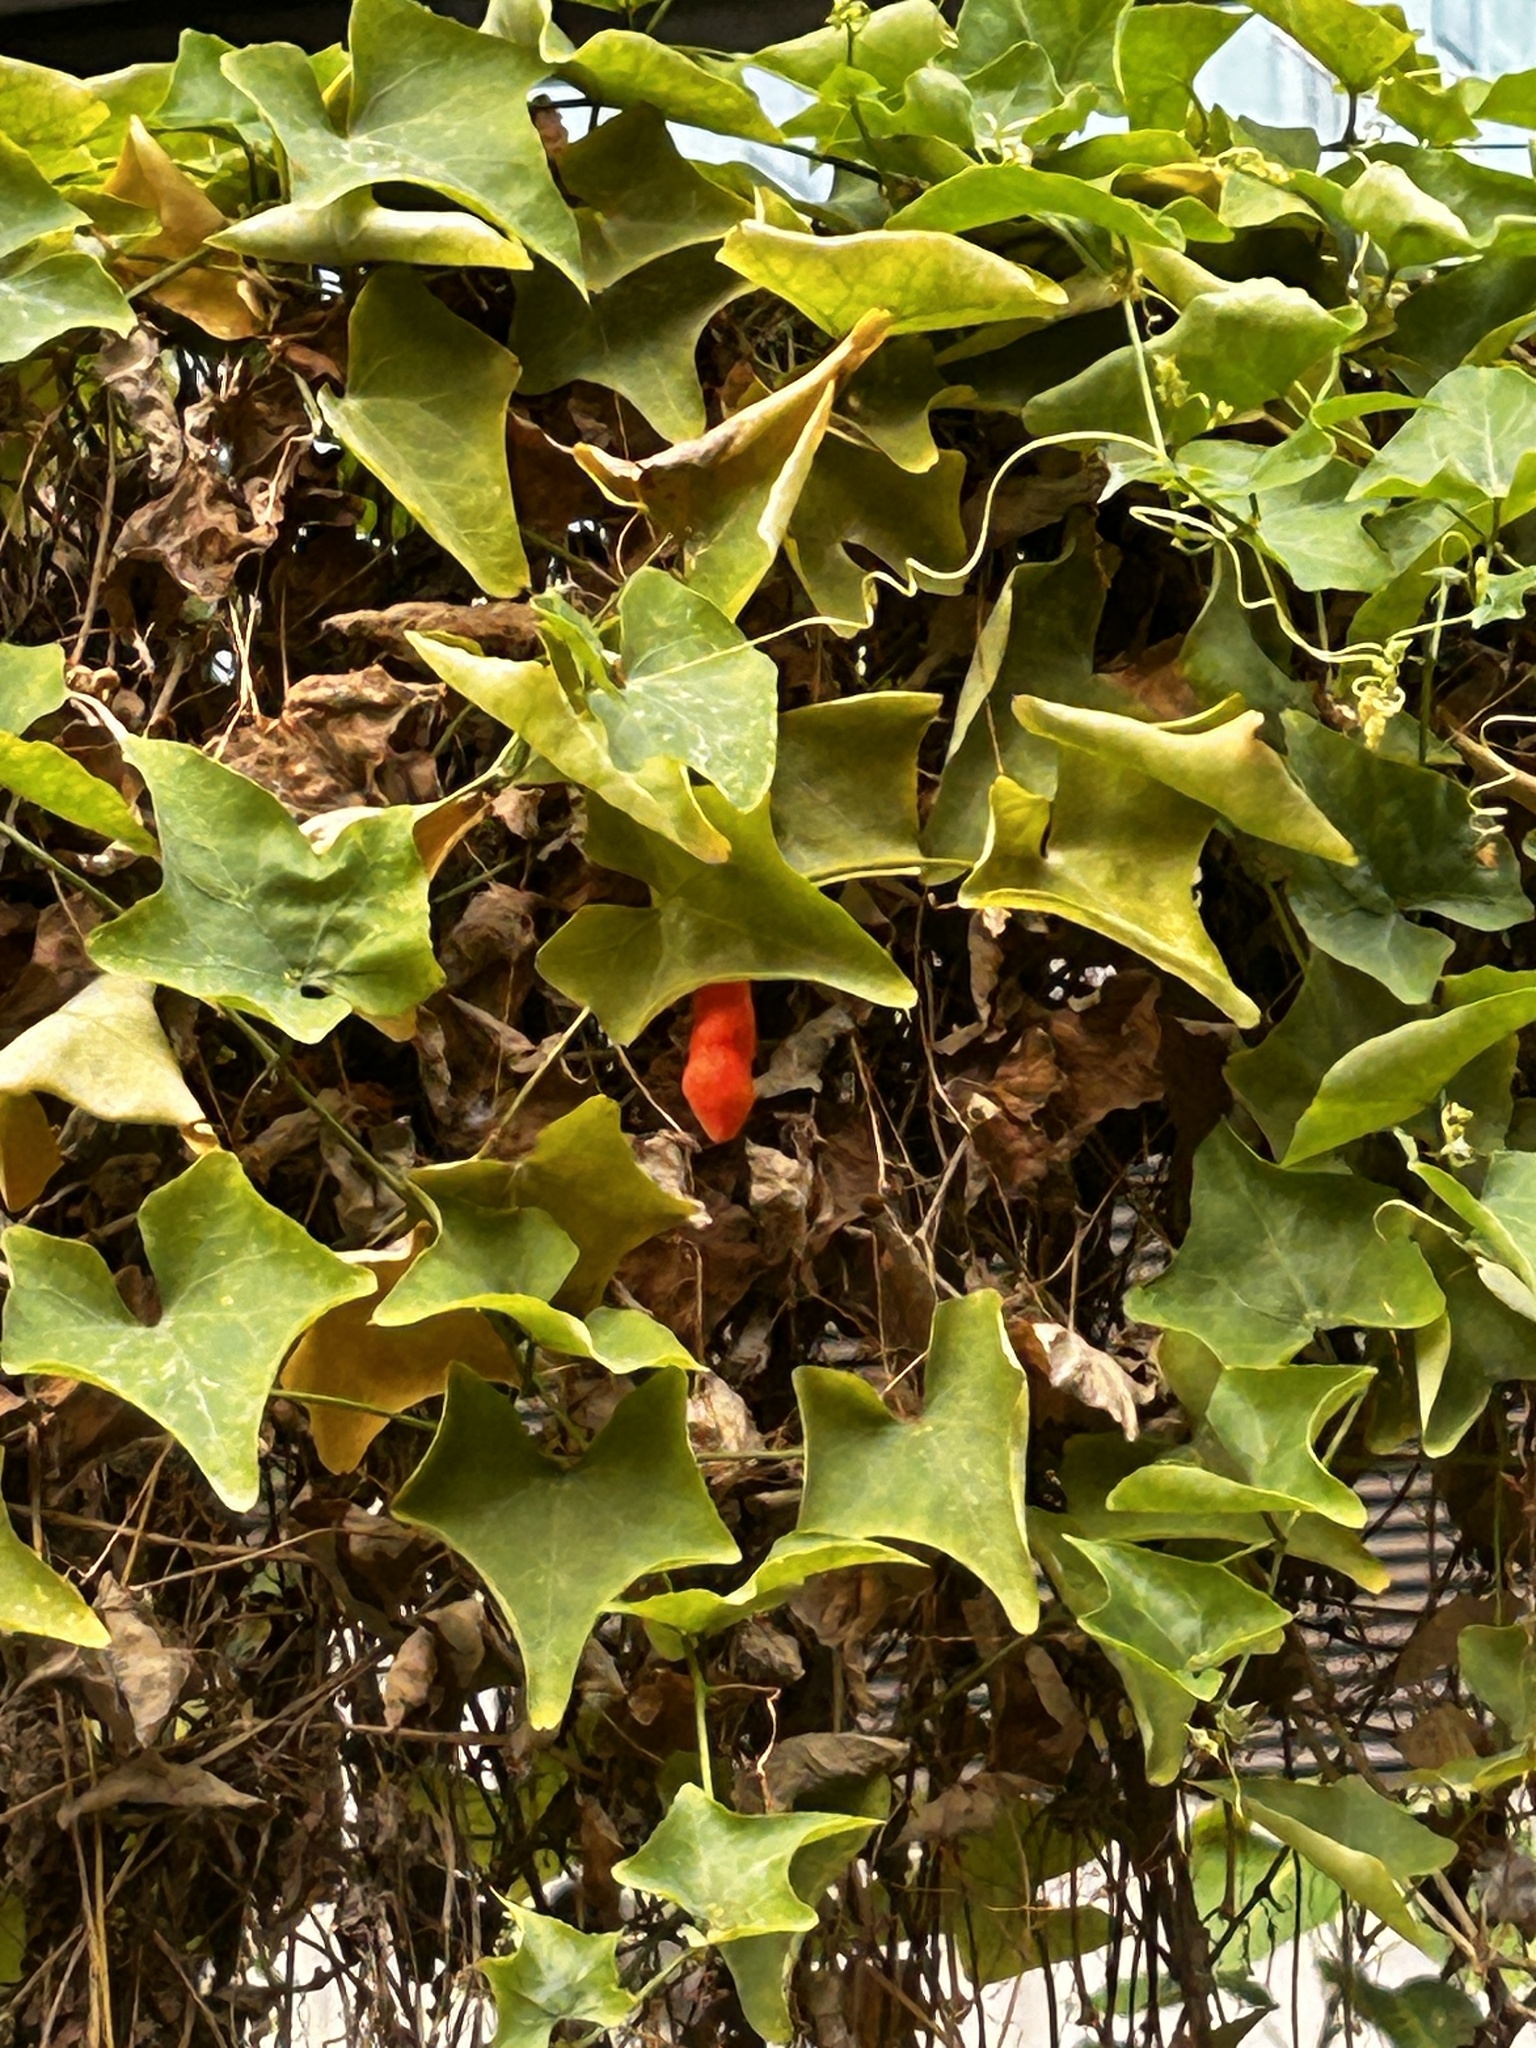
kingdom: Plantae
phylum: Tracheophyta
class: Magnoliopsida
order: Cucurbitales
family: Cucurbitaceae
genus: Coccinia
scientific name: Coccinia grandis
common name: Ivy gourd
